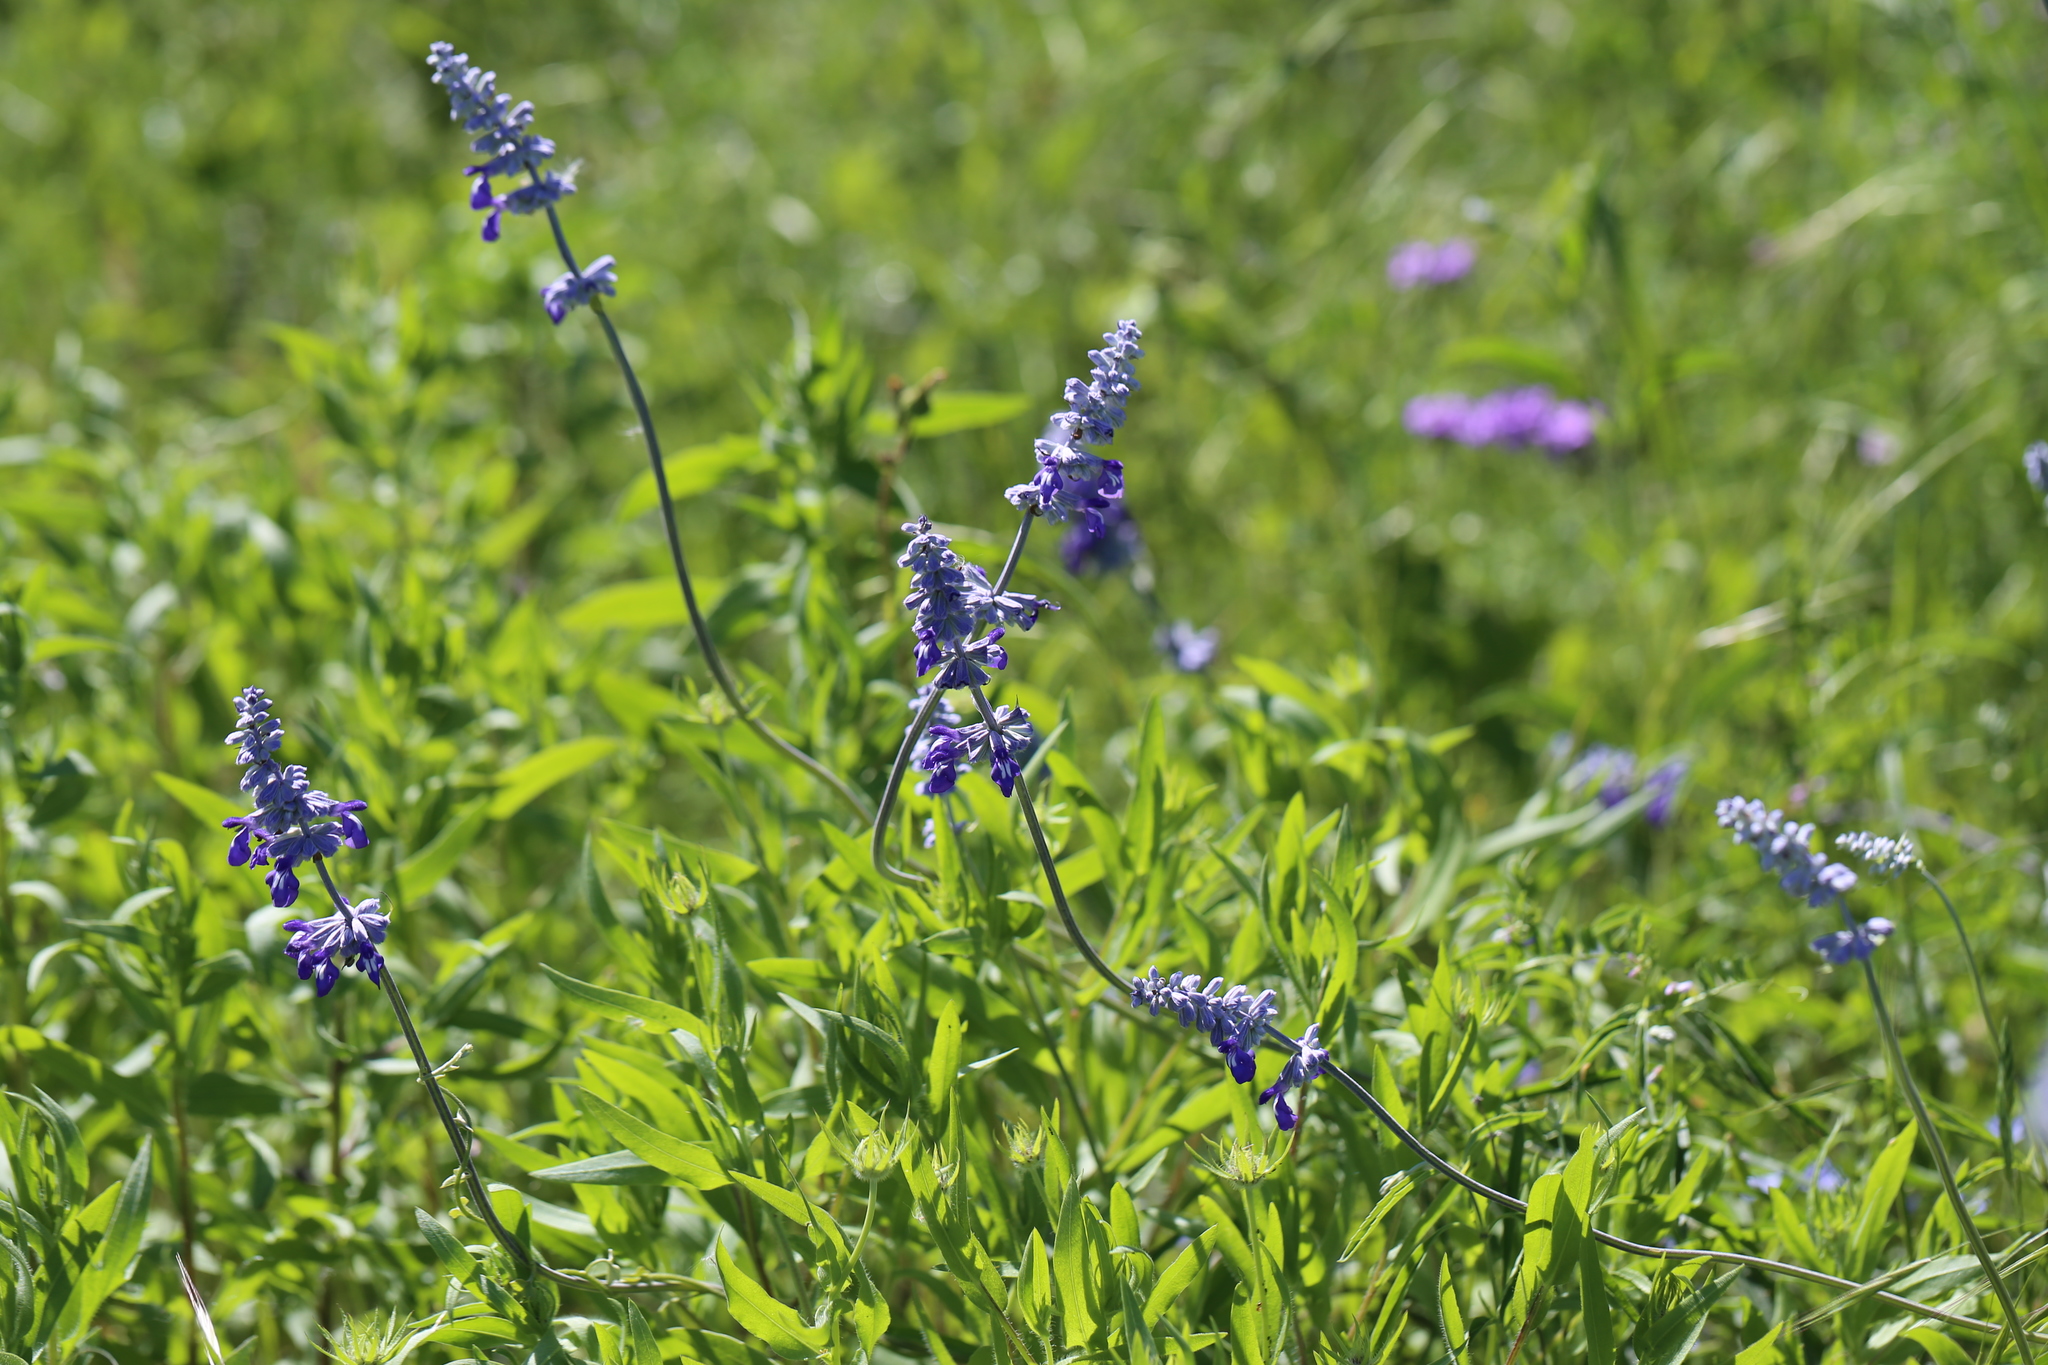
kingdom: Plantae
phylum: Tracheophyta
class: Magnoliopsida
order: Lamiales
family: Lamiaceae
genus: Salvia
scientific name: Salvia farinacea
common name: Mealy sage
